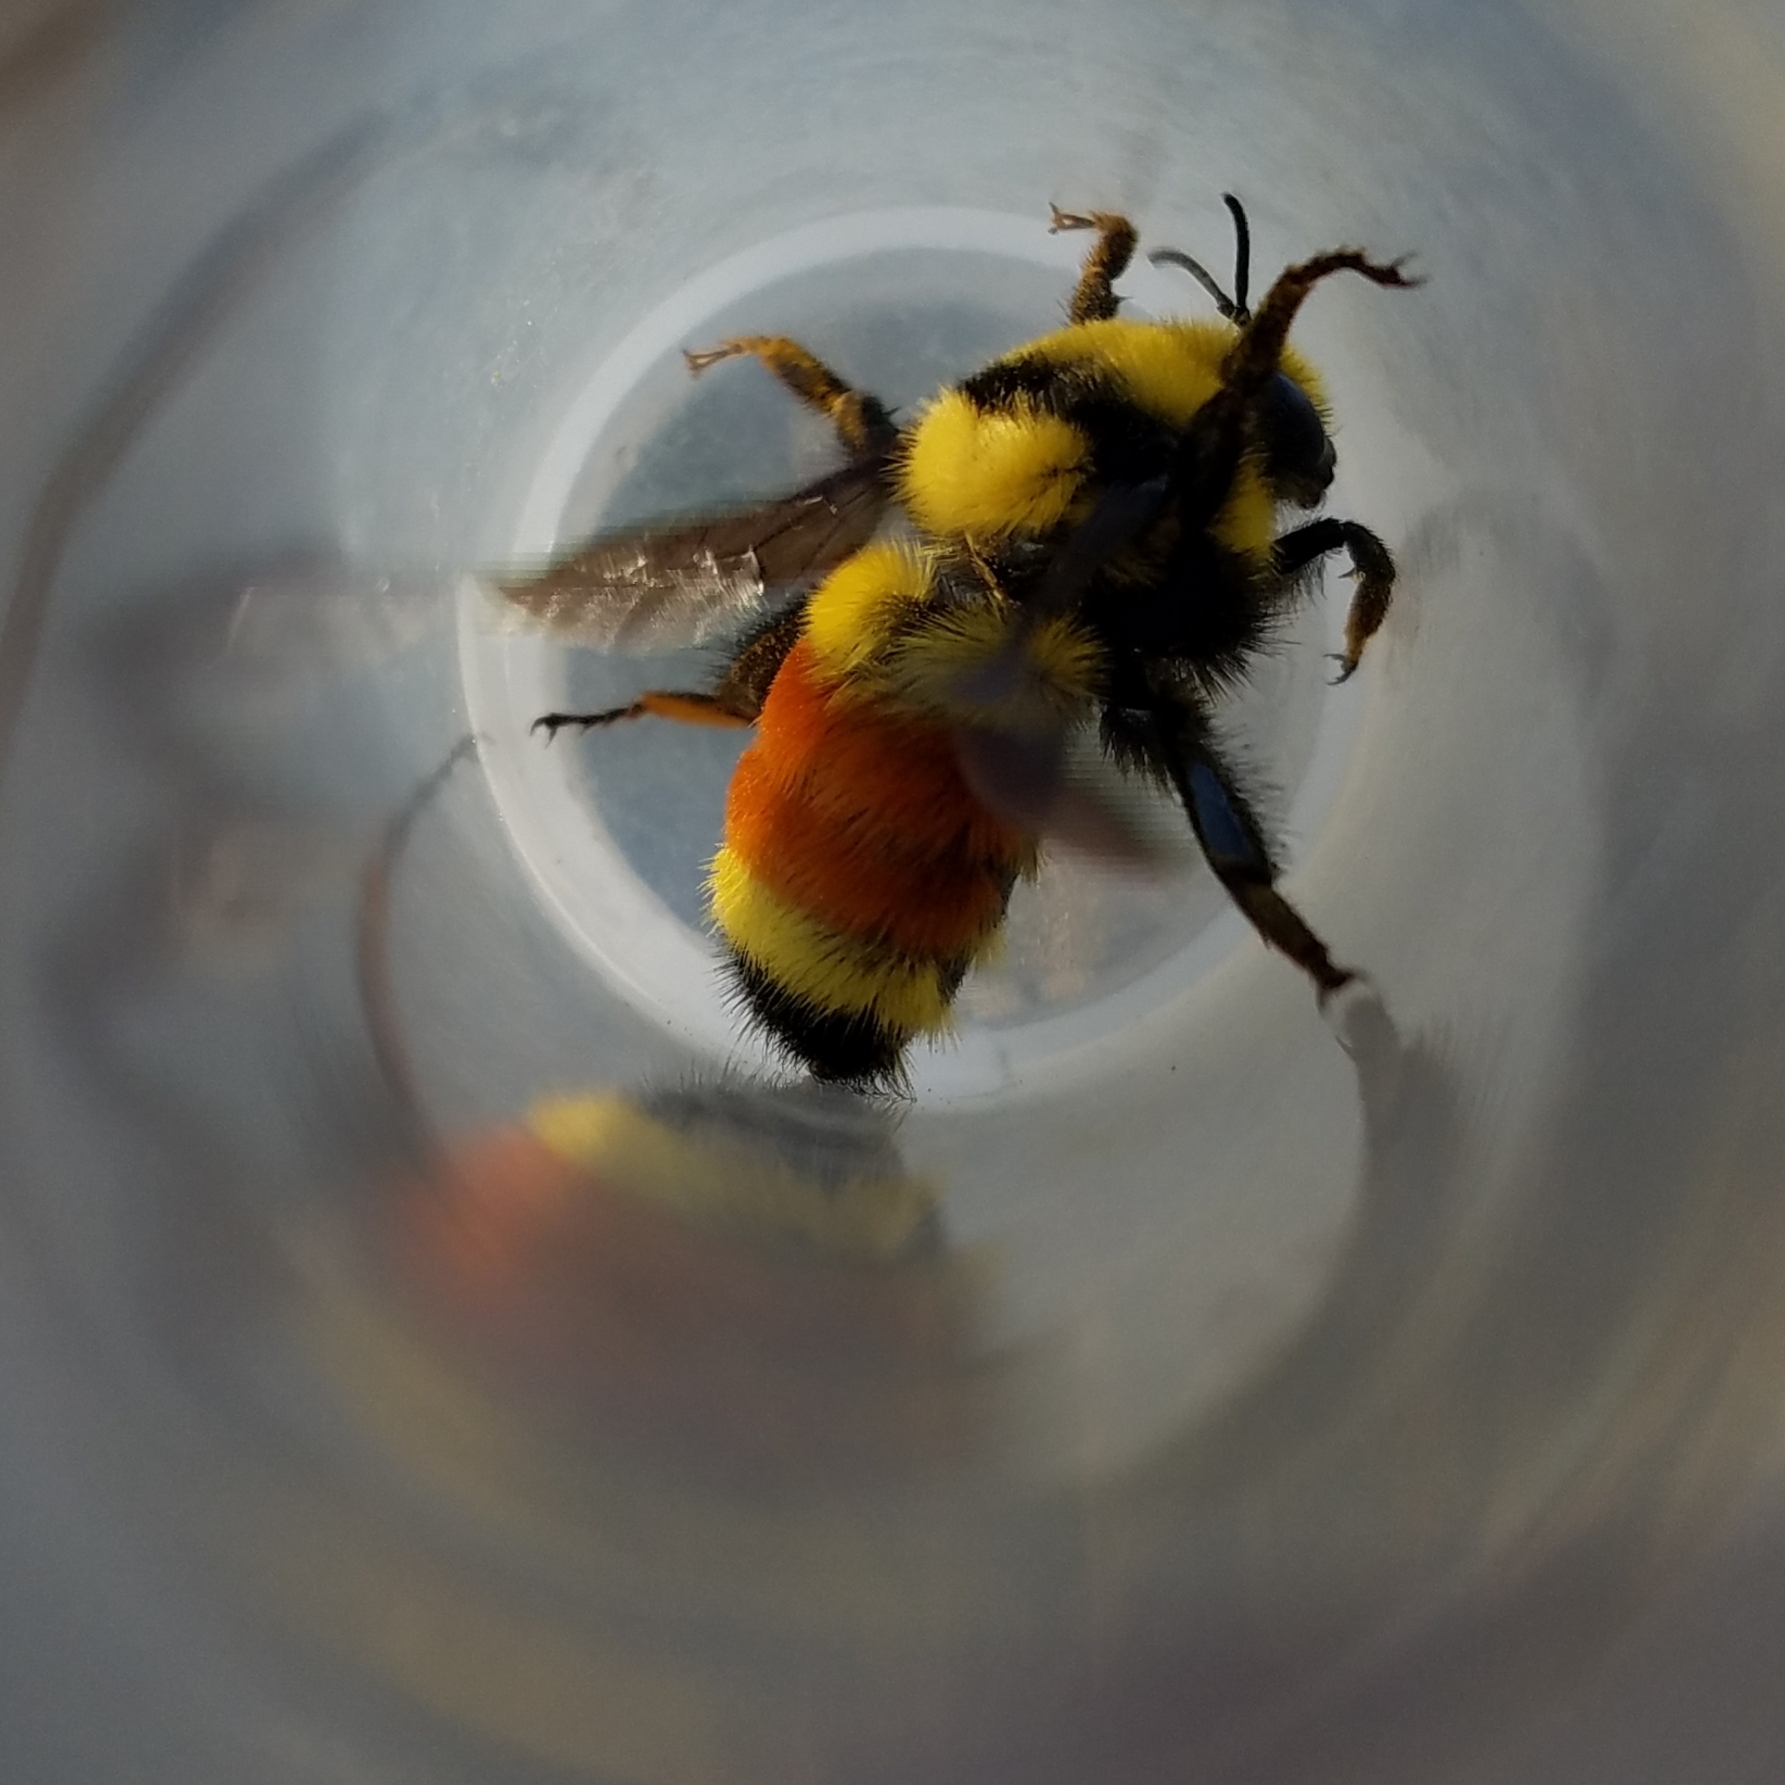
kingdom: Animalia
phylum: Arthropoda
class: Insecta
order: Hymenoptera
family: Apidae
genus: Bombus
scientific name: Bombus huntii
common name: Hunt bumble bee
